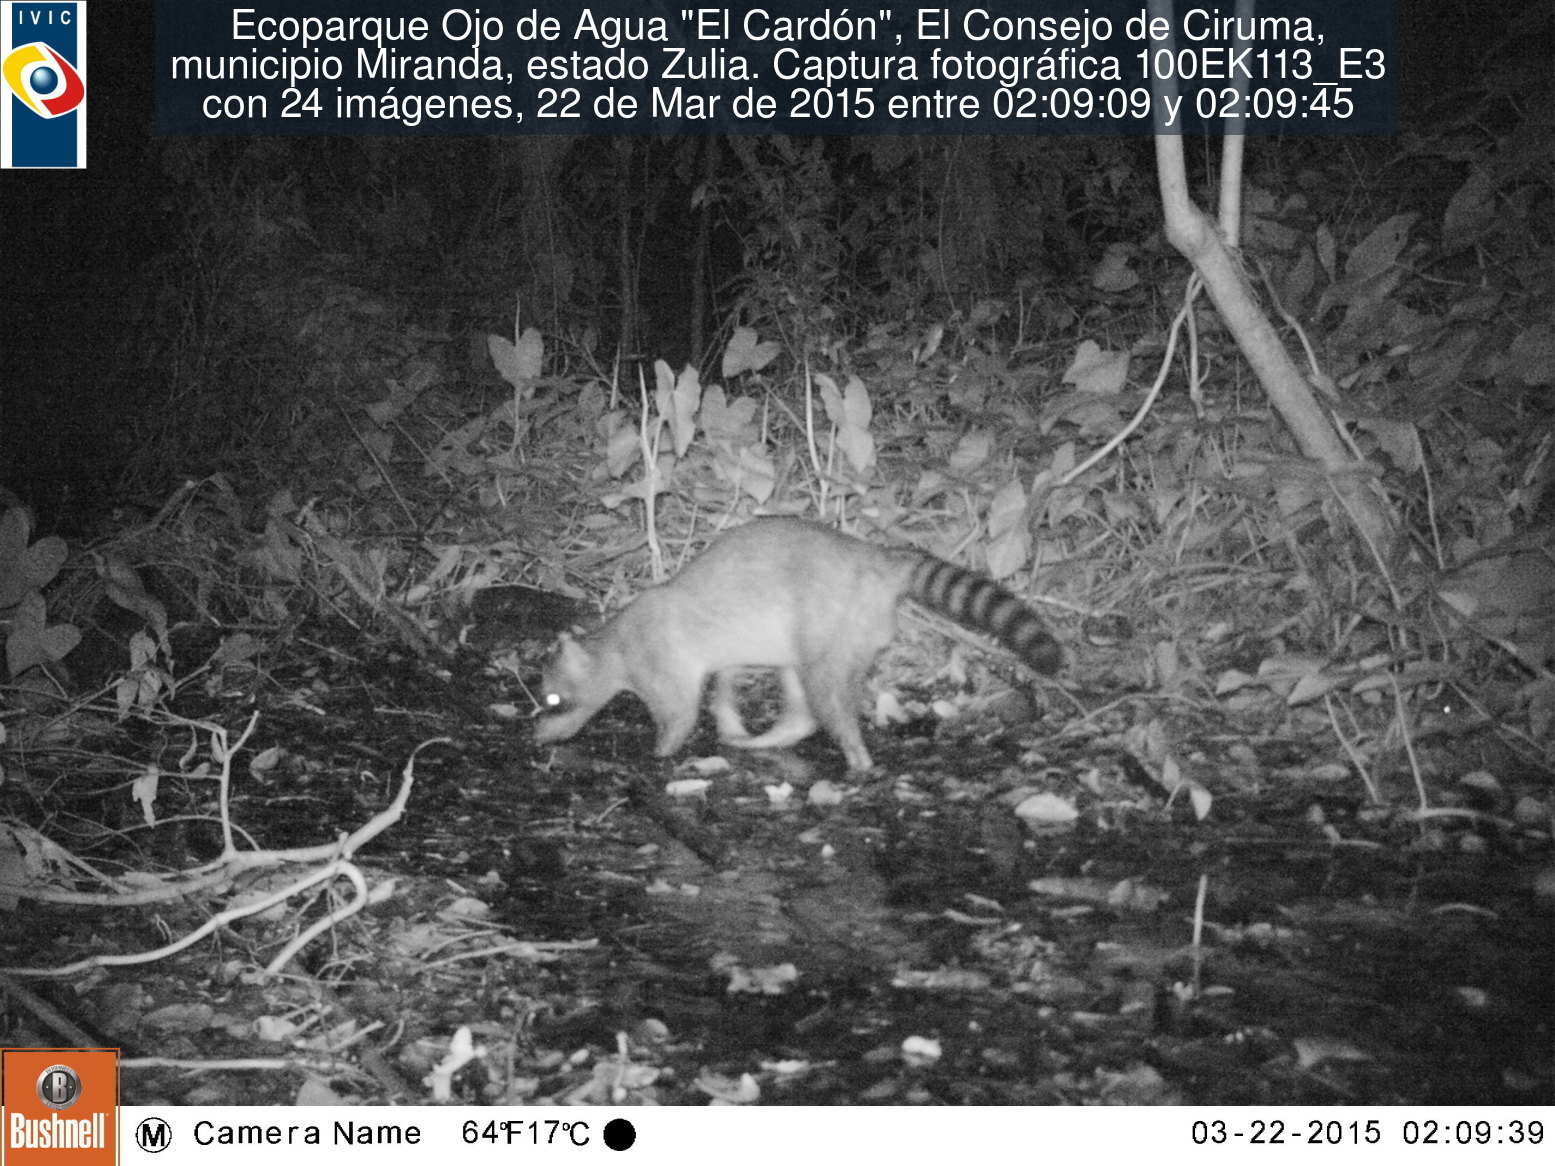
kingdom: Animalia
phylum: Chordata
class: Mammalia
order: Carnivora
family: Procyonidae
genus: Procyon
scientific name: Procyon cancrivorus
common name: Crab-eating raccoon
